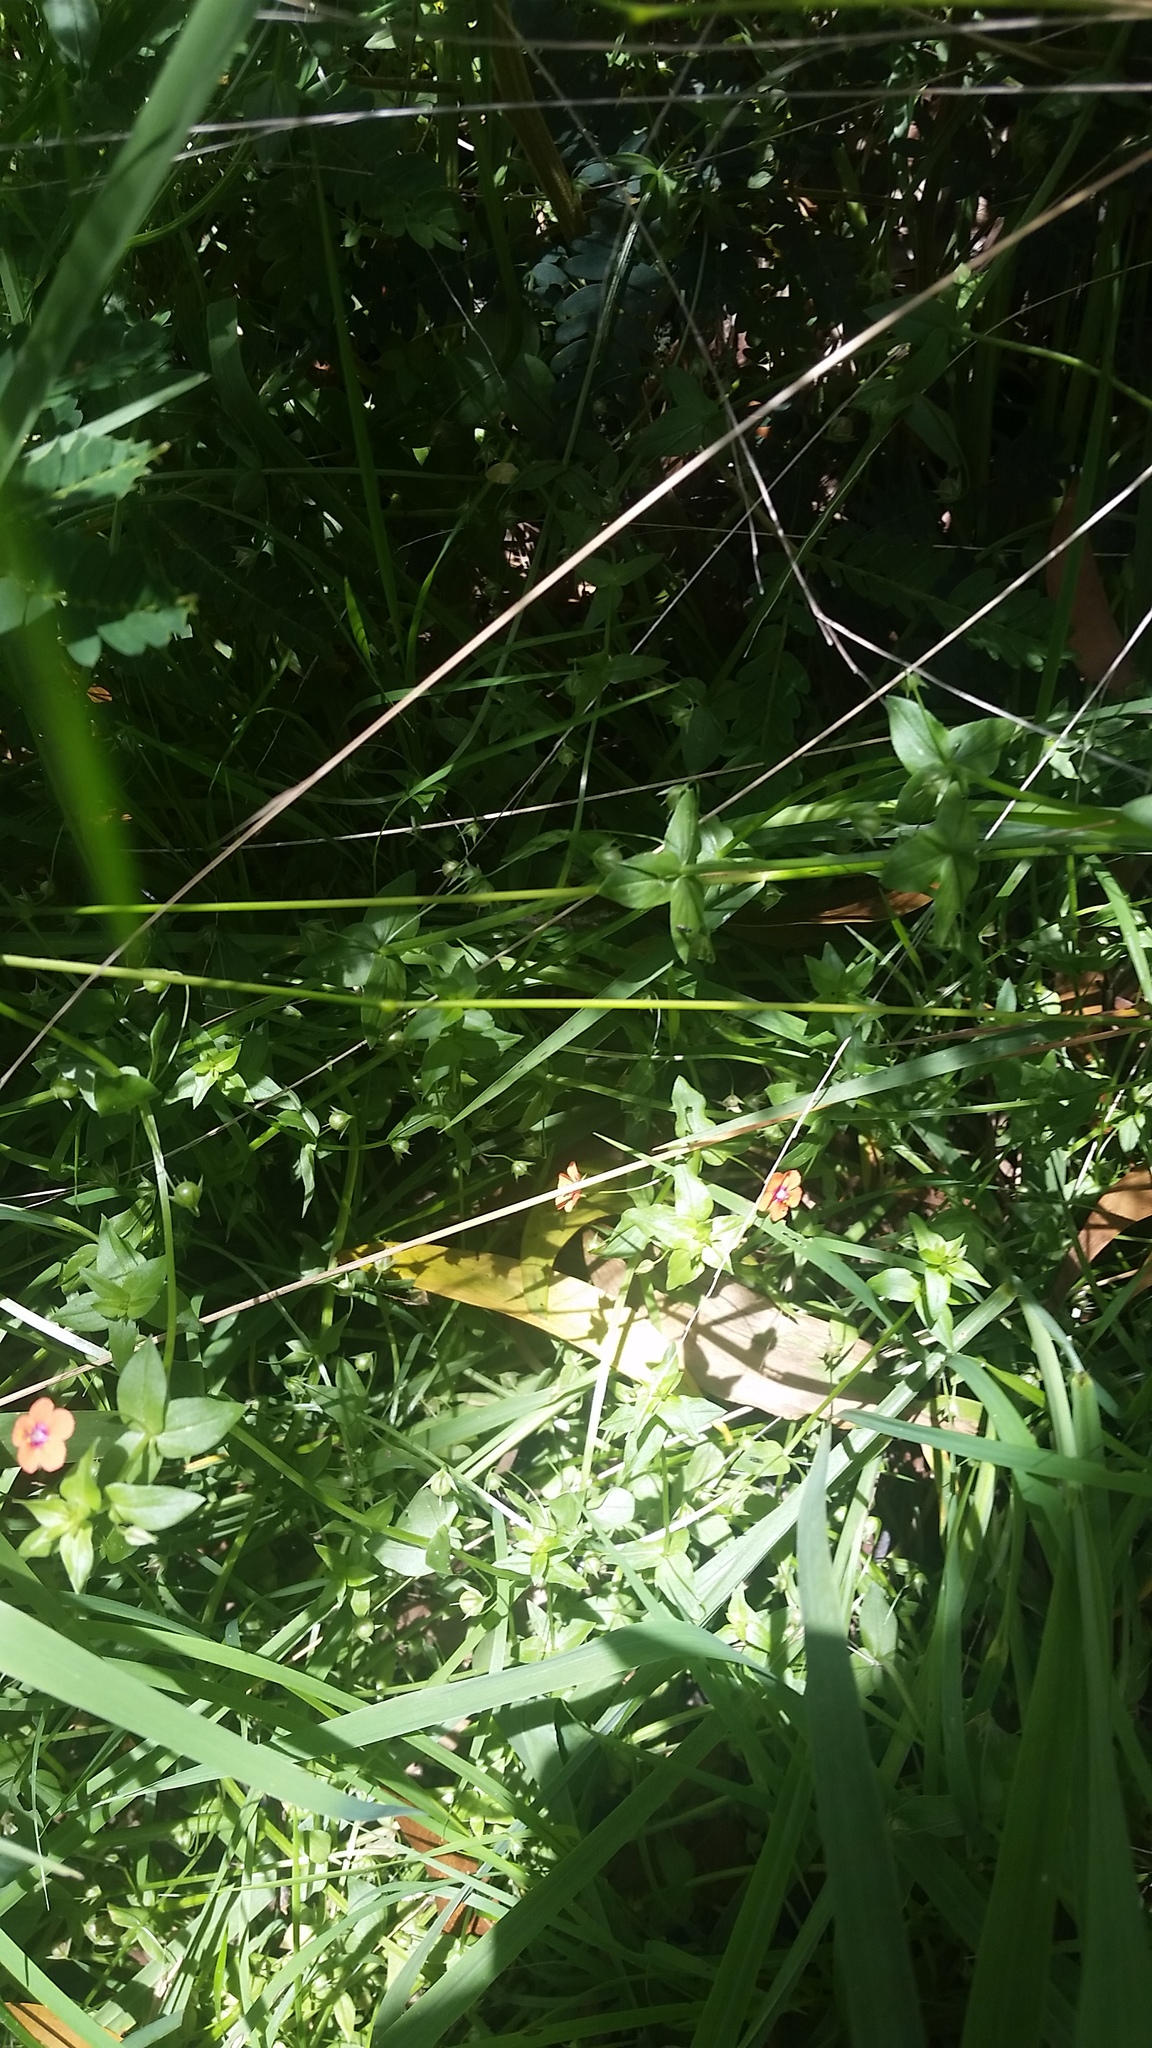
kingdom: Plantae
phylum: Tracheophyta
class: Magnoliopsida
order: Ericales
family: Primulaceae
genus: Lysimachia
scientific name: Lysimachia arvensis
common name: Scarlet pimpernel
